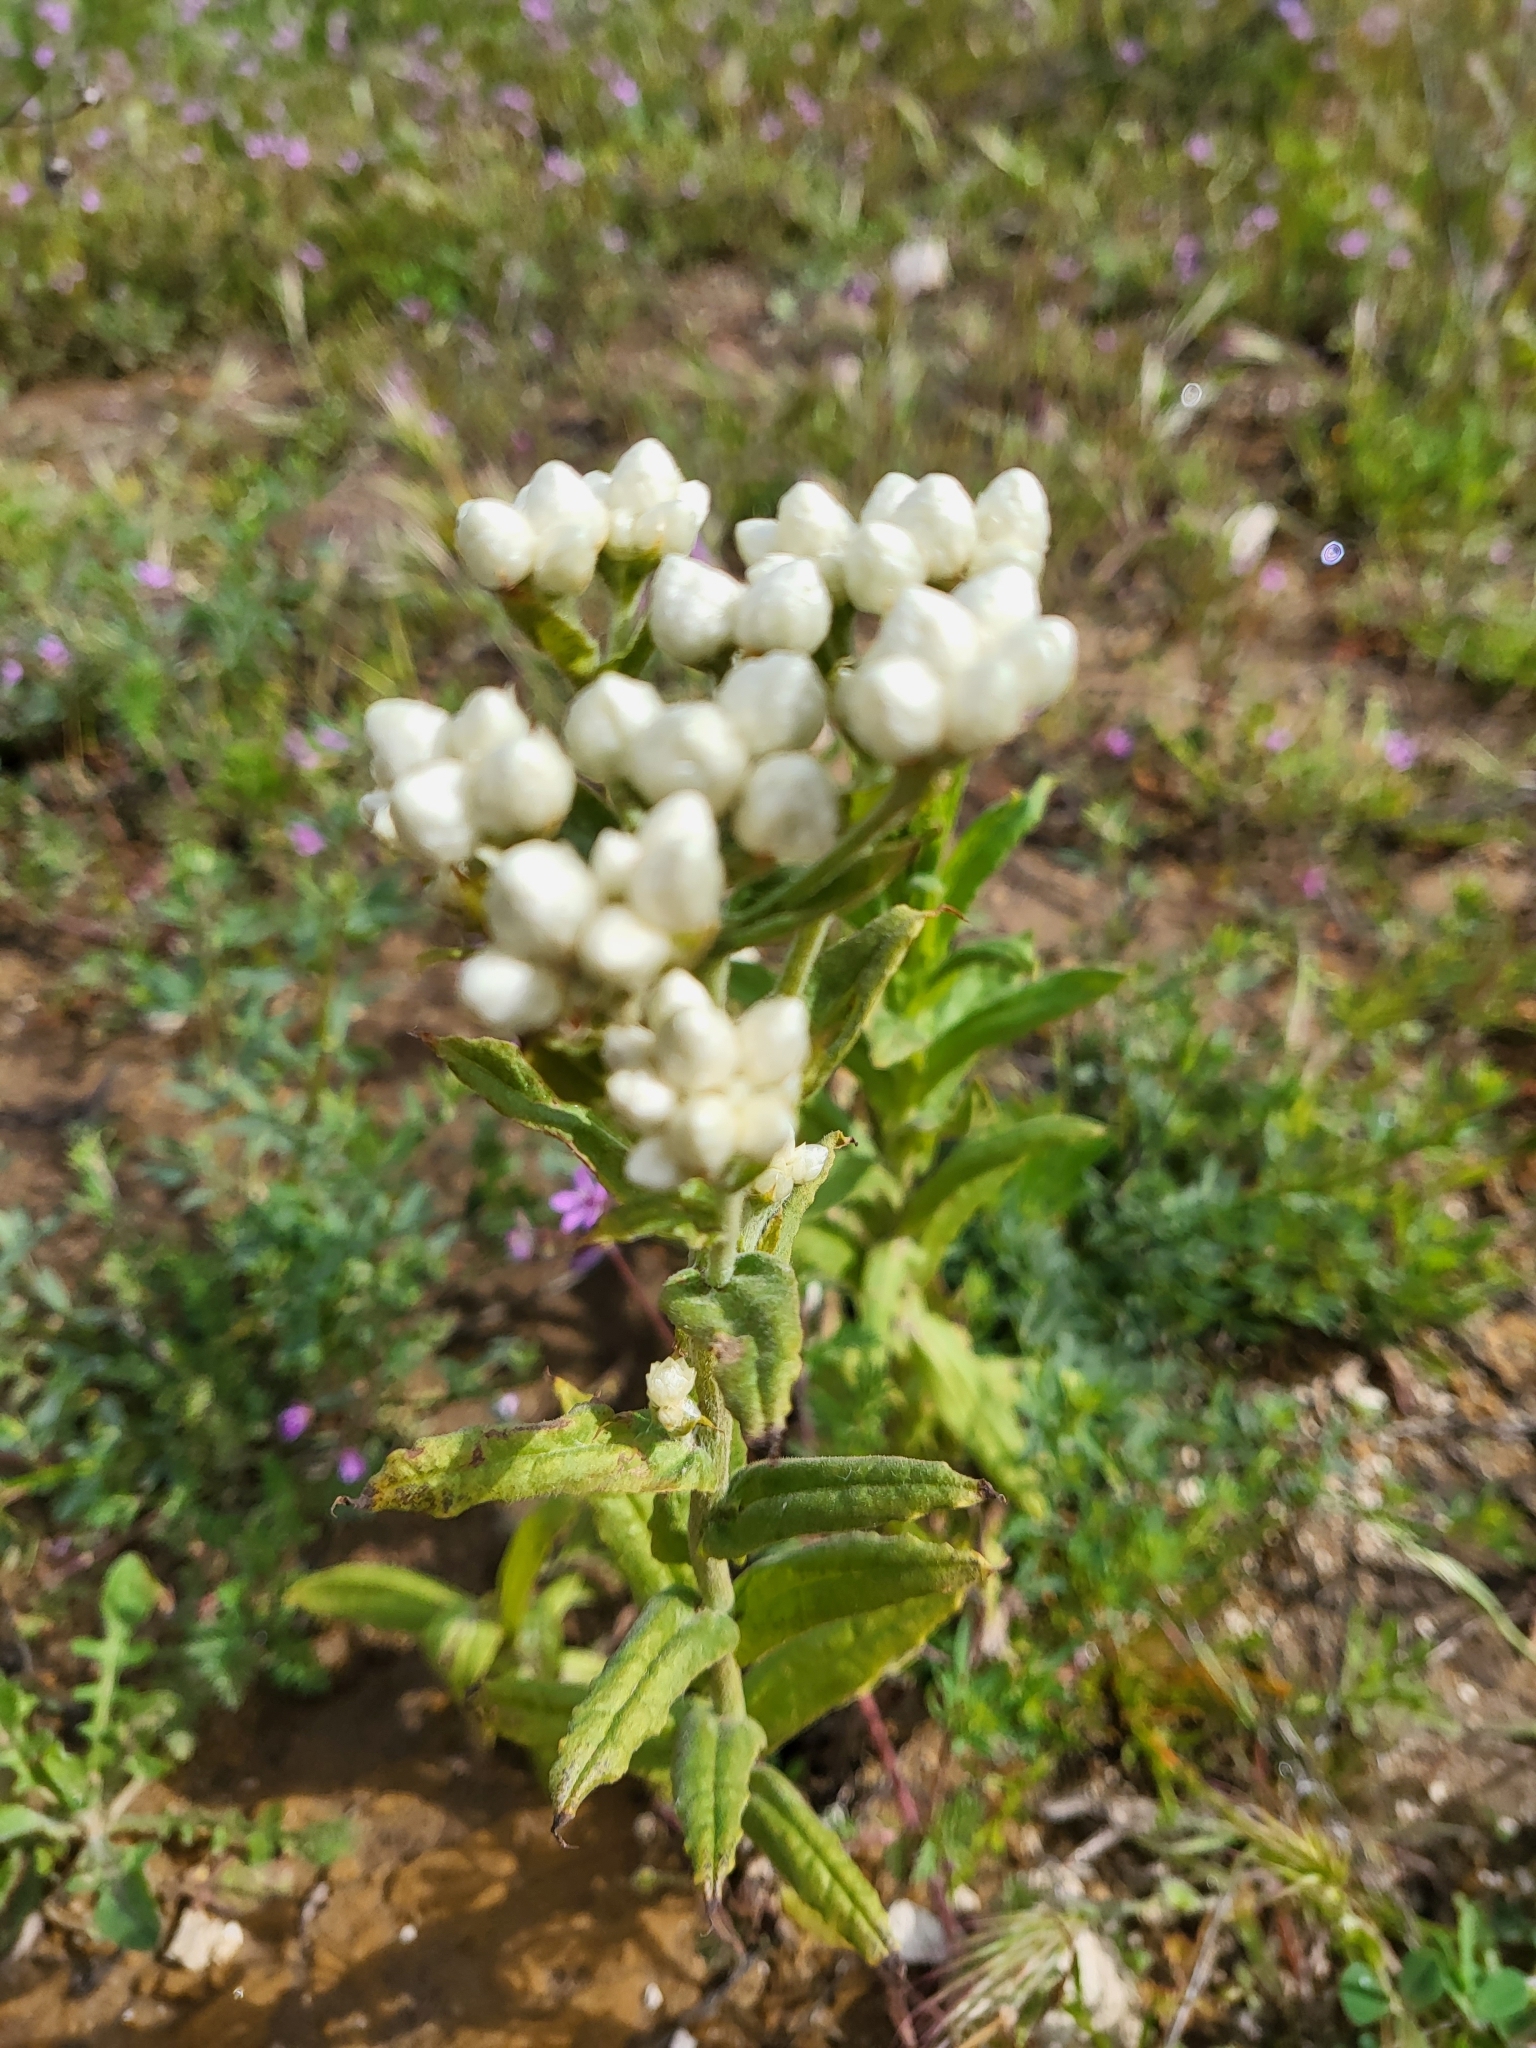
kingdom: Plantae
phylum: Tracheophyta
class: Magnoliopsida
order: Asterales
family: Asteraceae
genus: Pseudognaphalium
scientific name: Pseudognaphalium californicum
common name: California rabbit-tobacco
